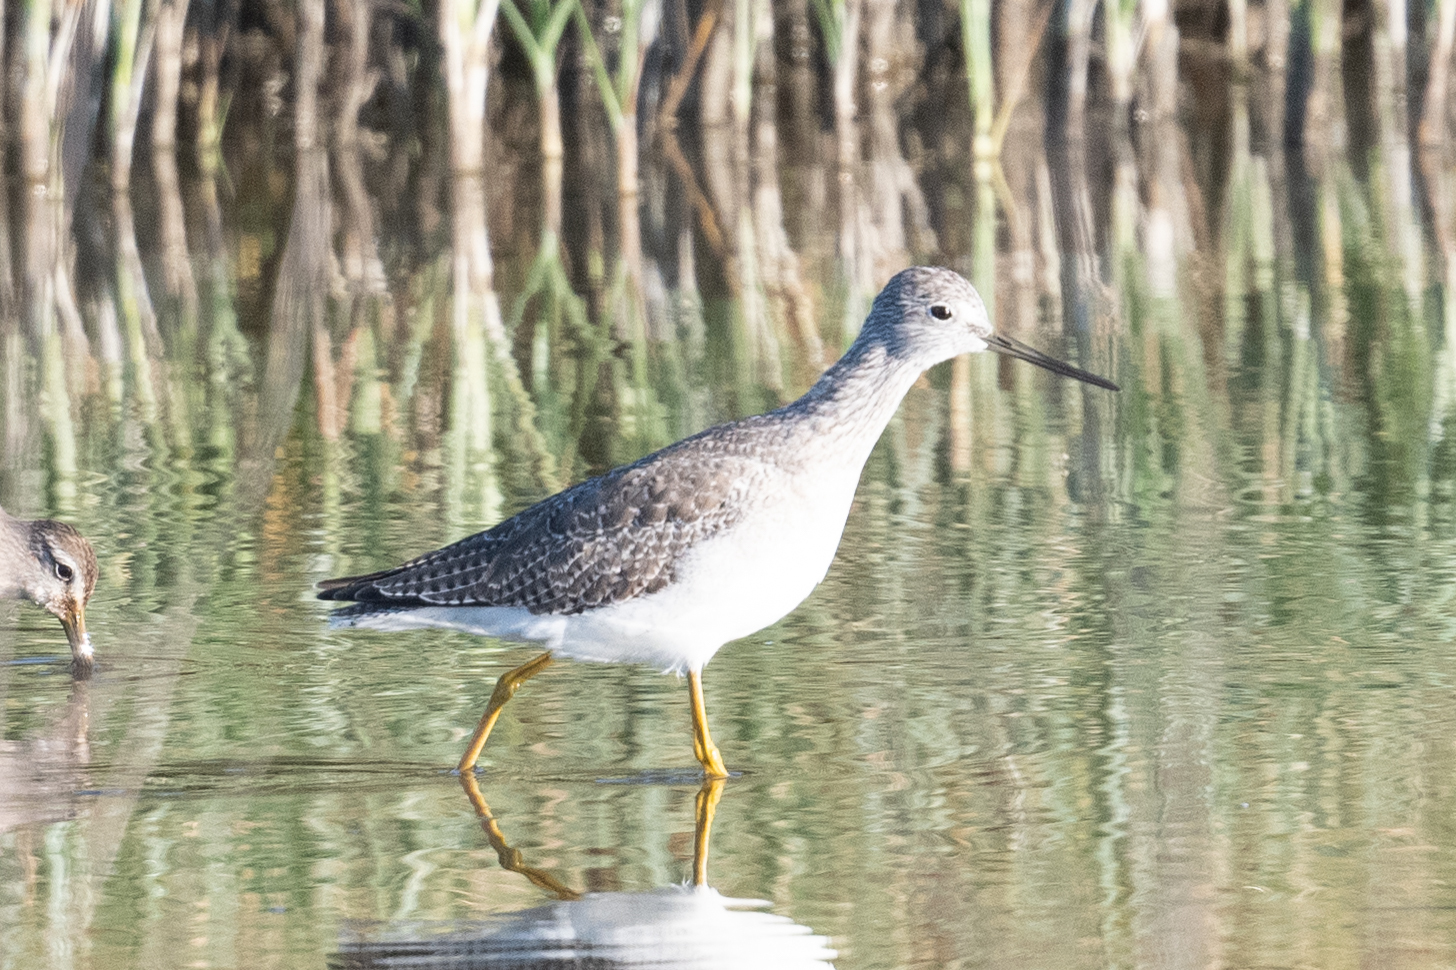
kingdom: Animalia
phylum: Chordata
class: Aves
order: Charadriiformes
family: Scolopacidae
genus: Tringa
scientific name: Tringa melanoleuca
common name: Greater yellowlegs
